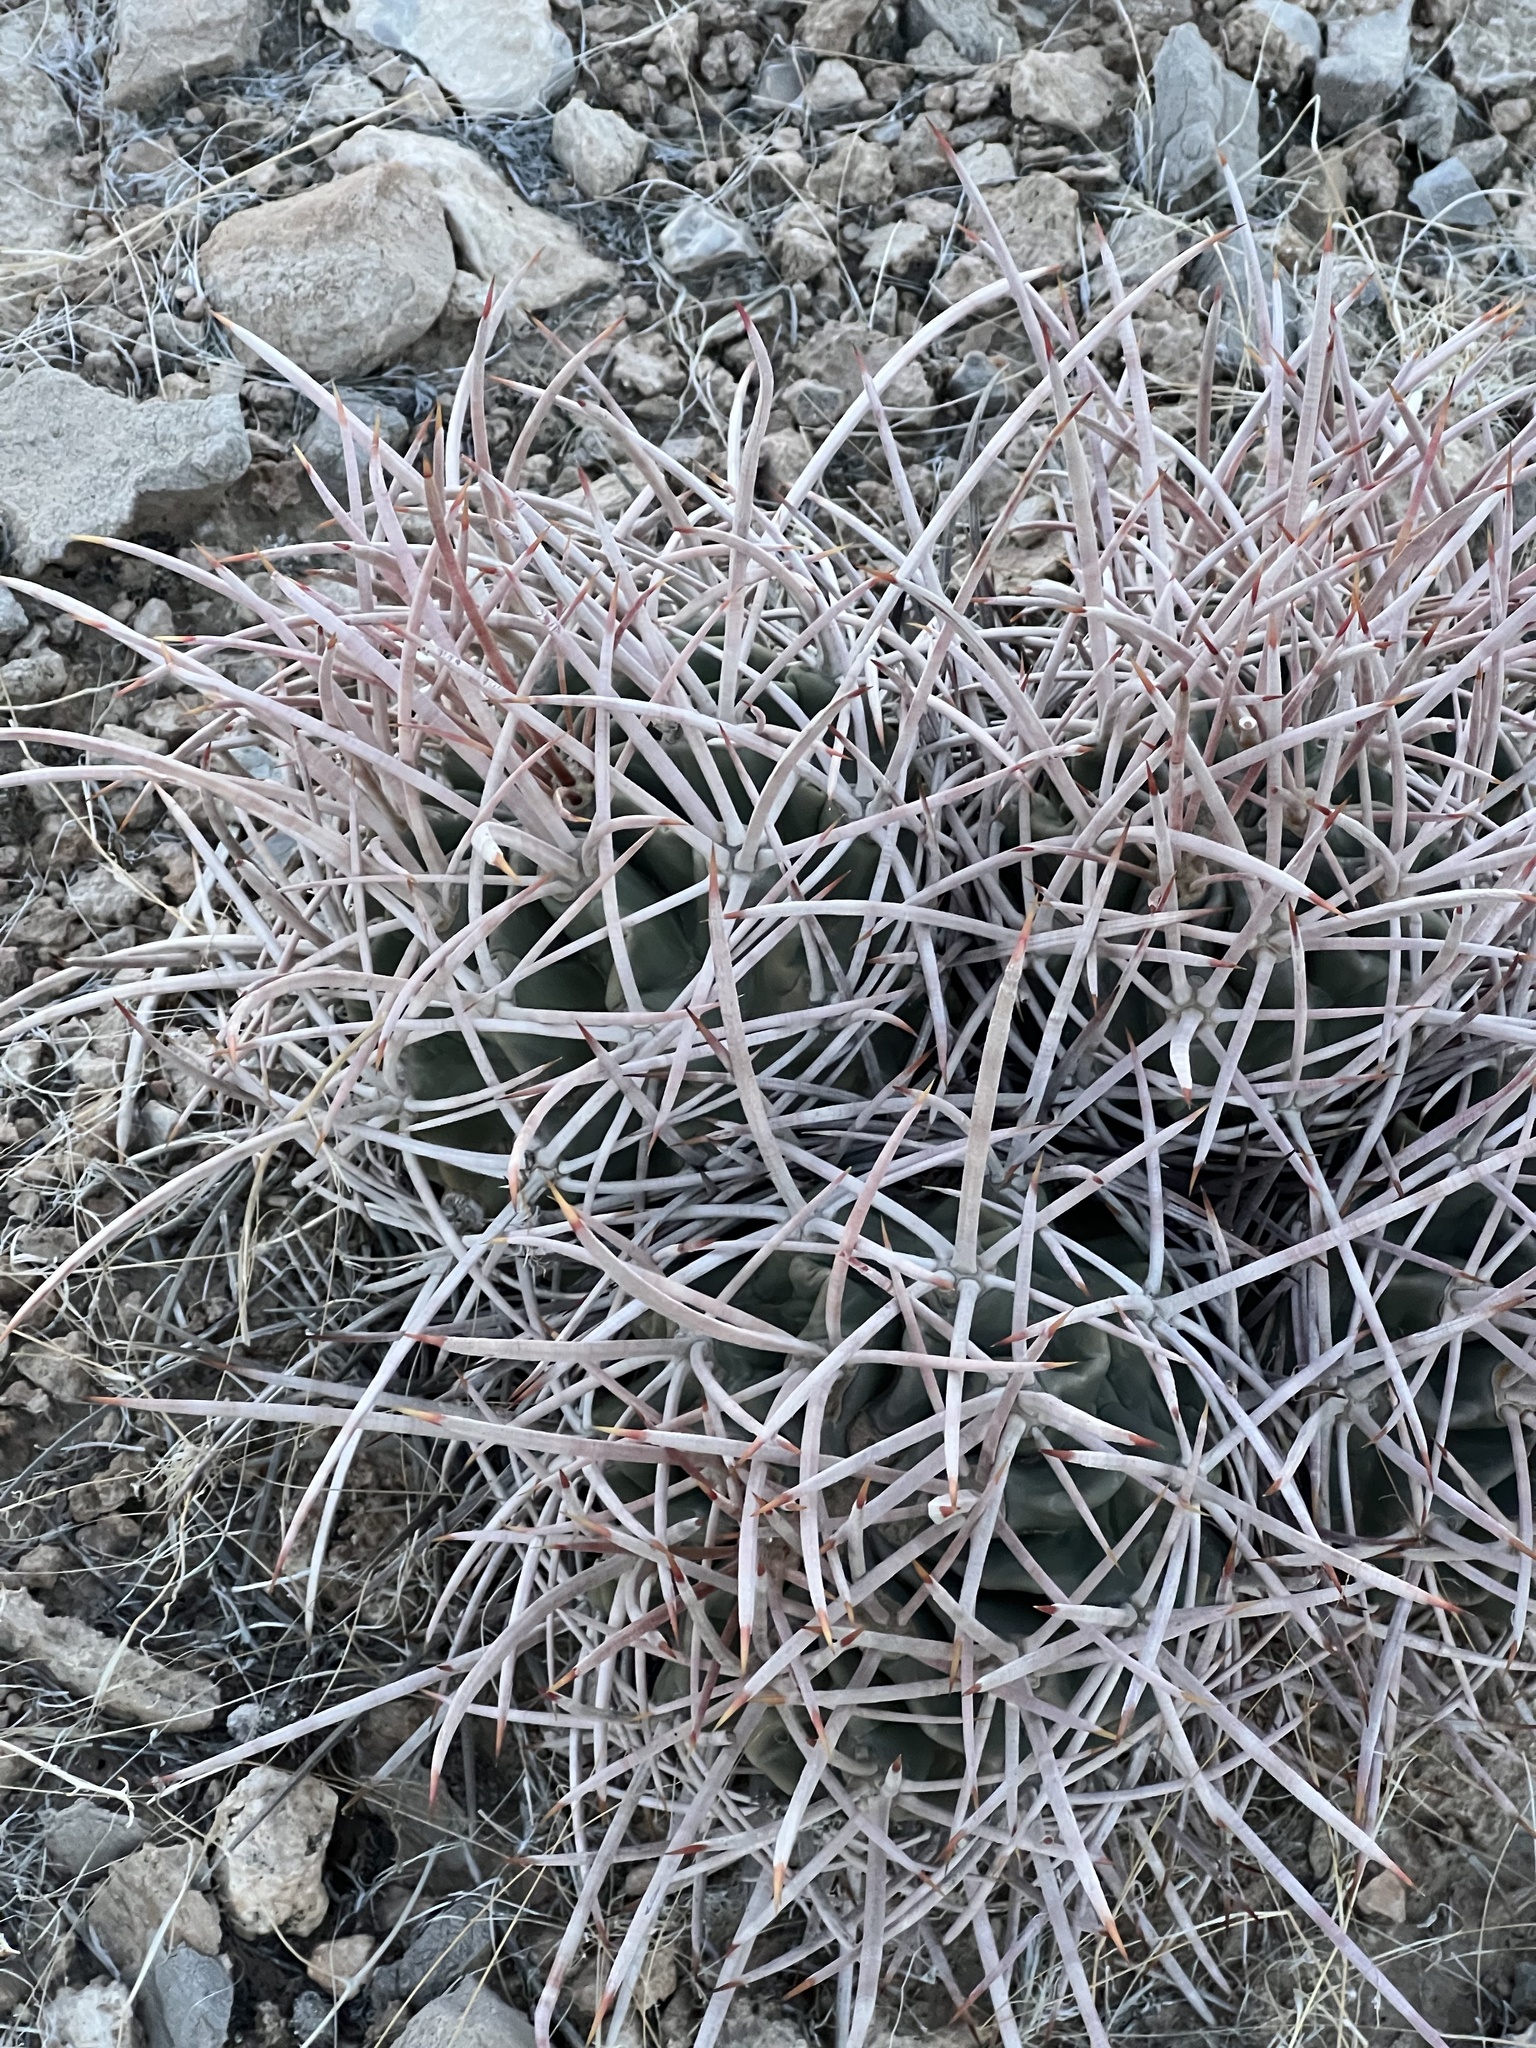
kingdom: Plantae
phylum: Tracheophyta
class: Magnoliopsida
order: Caryophyllales
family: Cactaceae
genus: Echinocactus
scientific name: Echinocactus polycephalus
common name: Cottontop cactus
